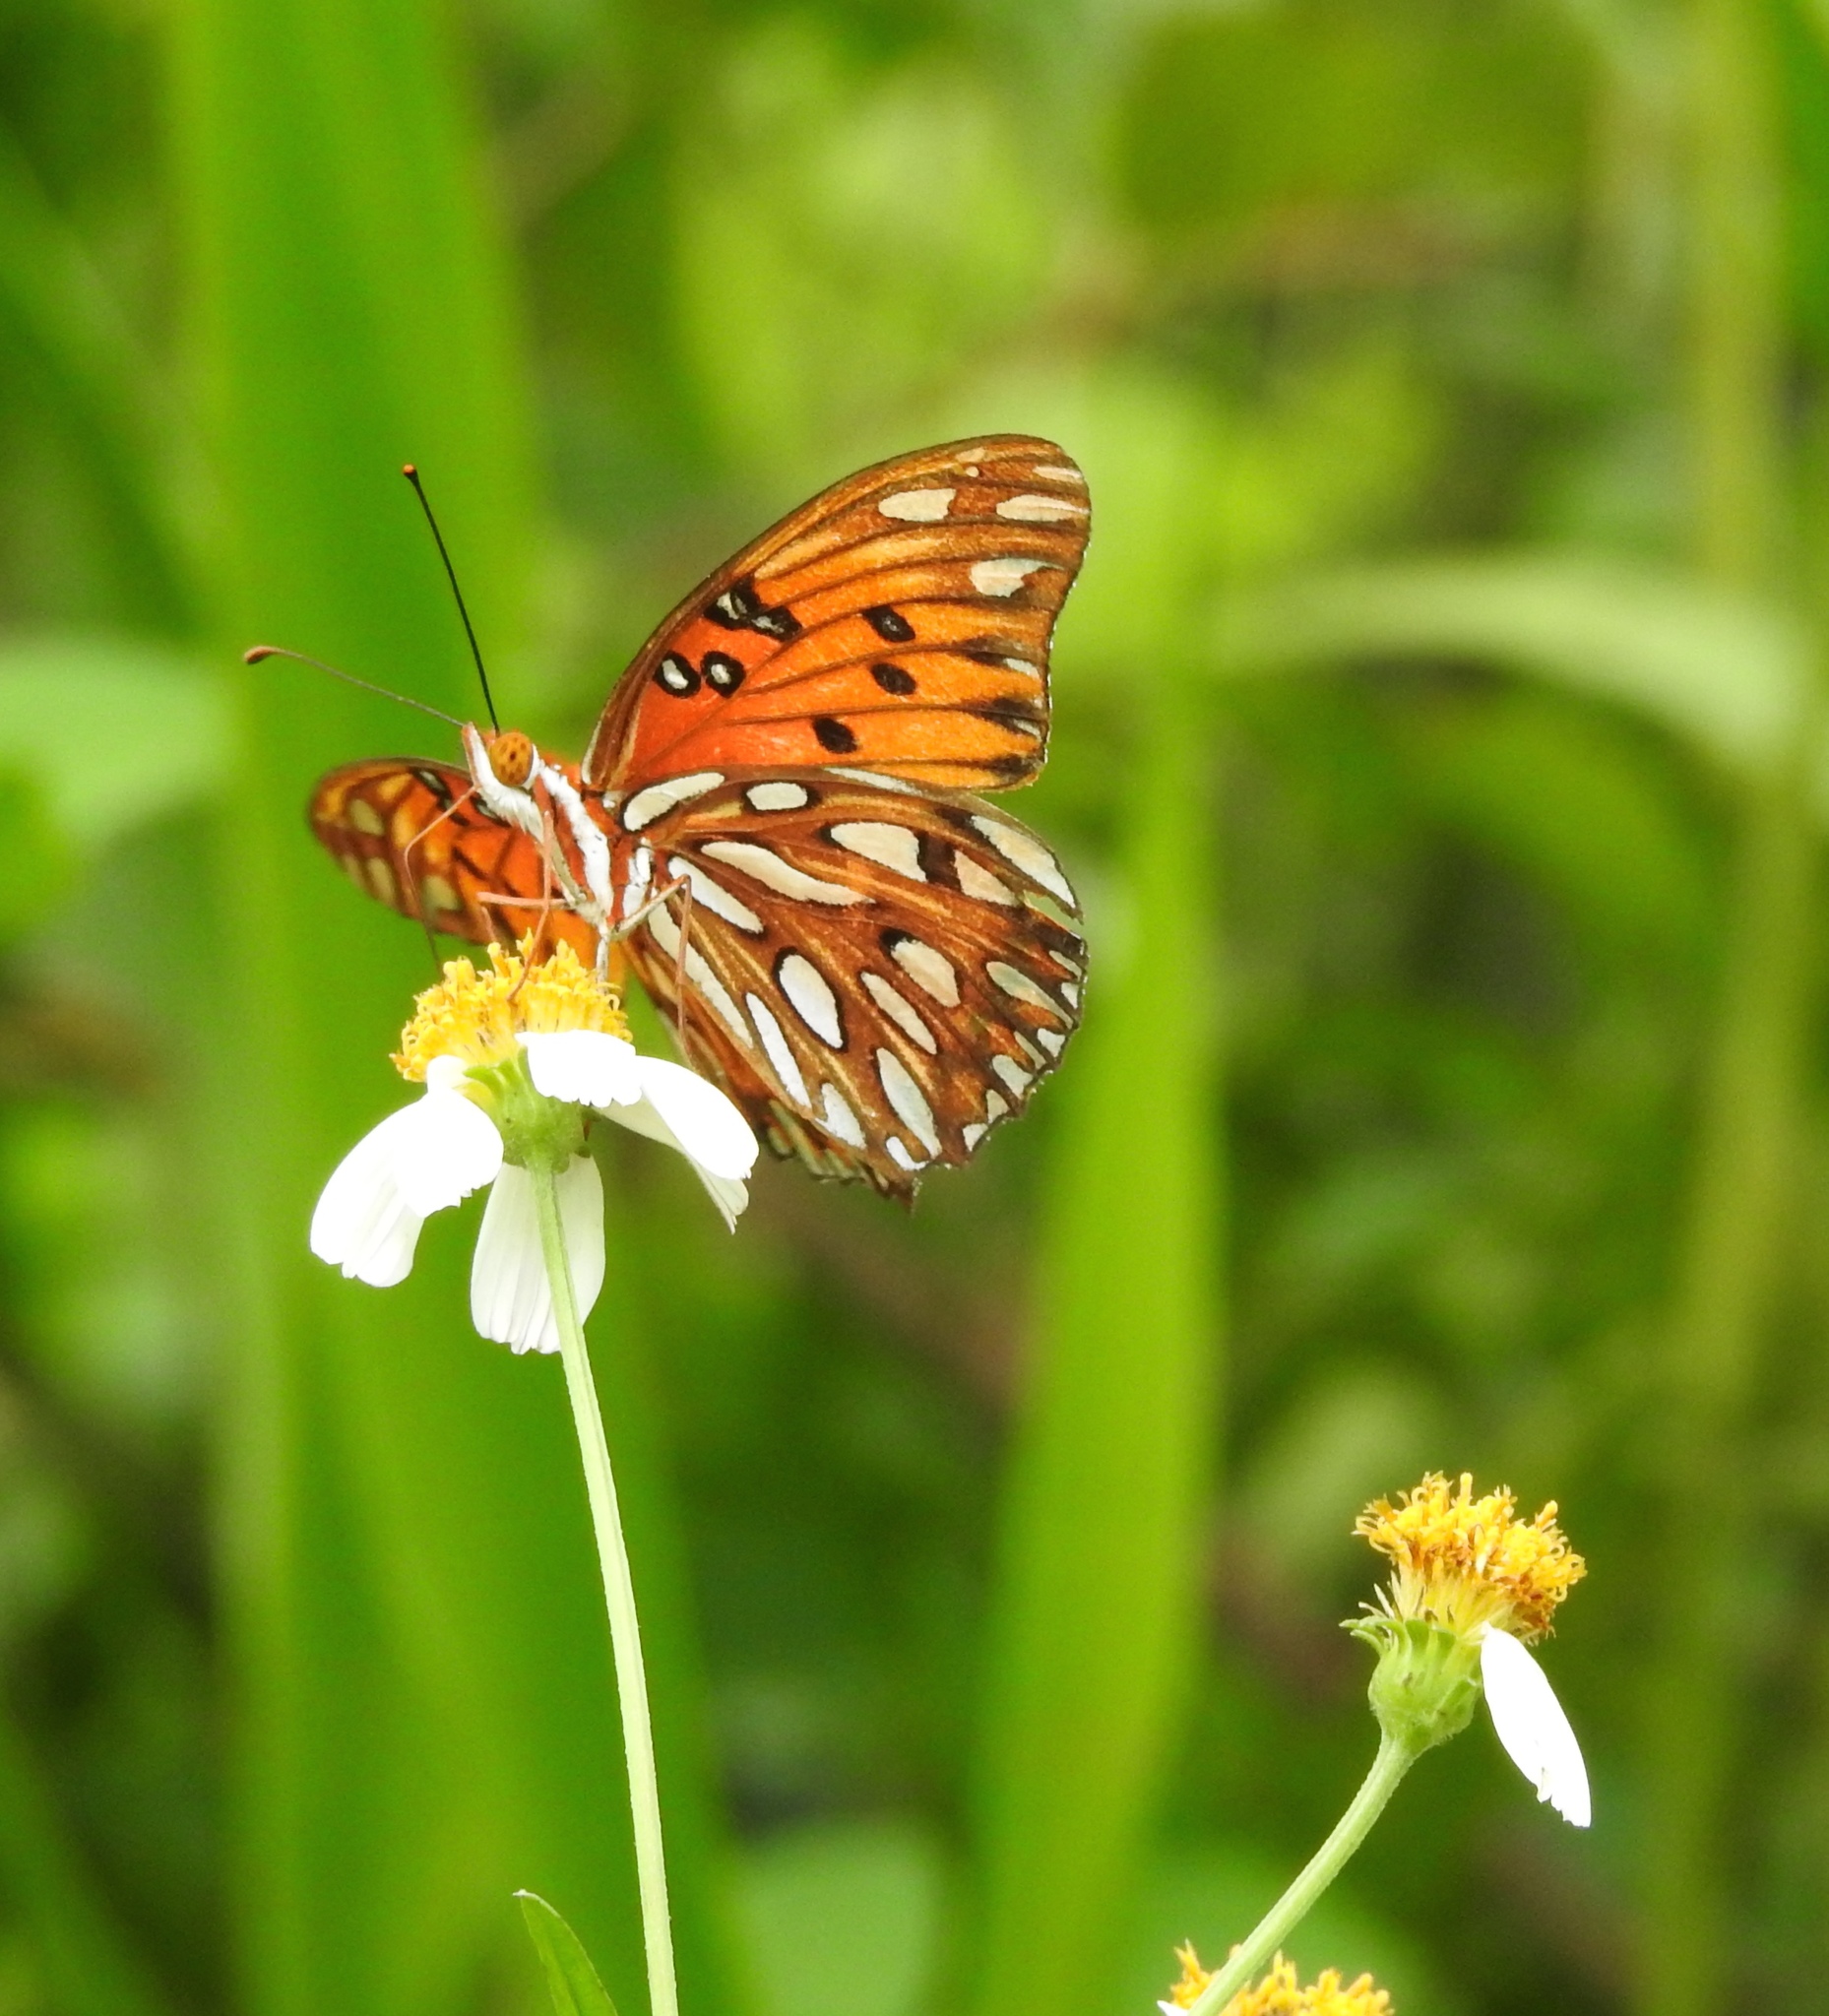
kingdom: Animalia
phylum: Arthropoda
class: Insecta
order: Lepidoptera
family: Nymphalidae
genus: Dione
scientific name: Dione vanillae
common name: Gulf fritillary
